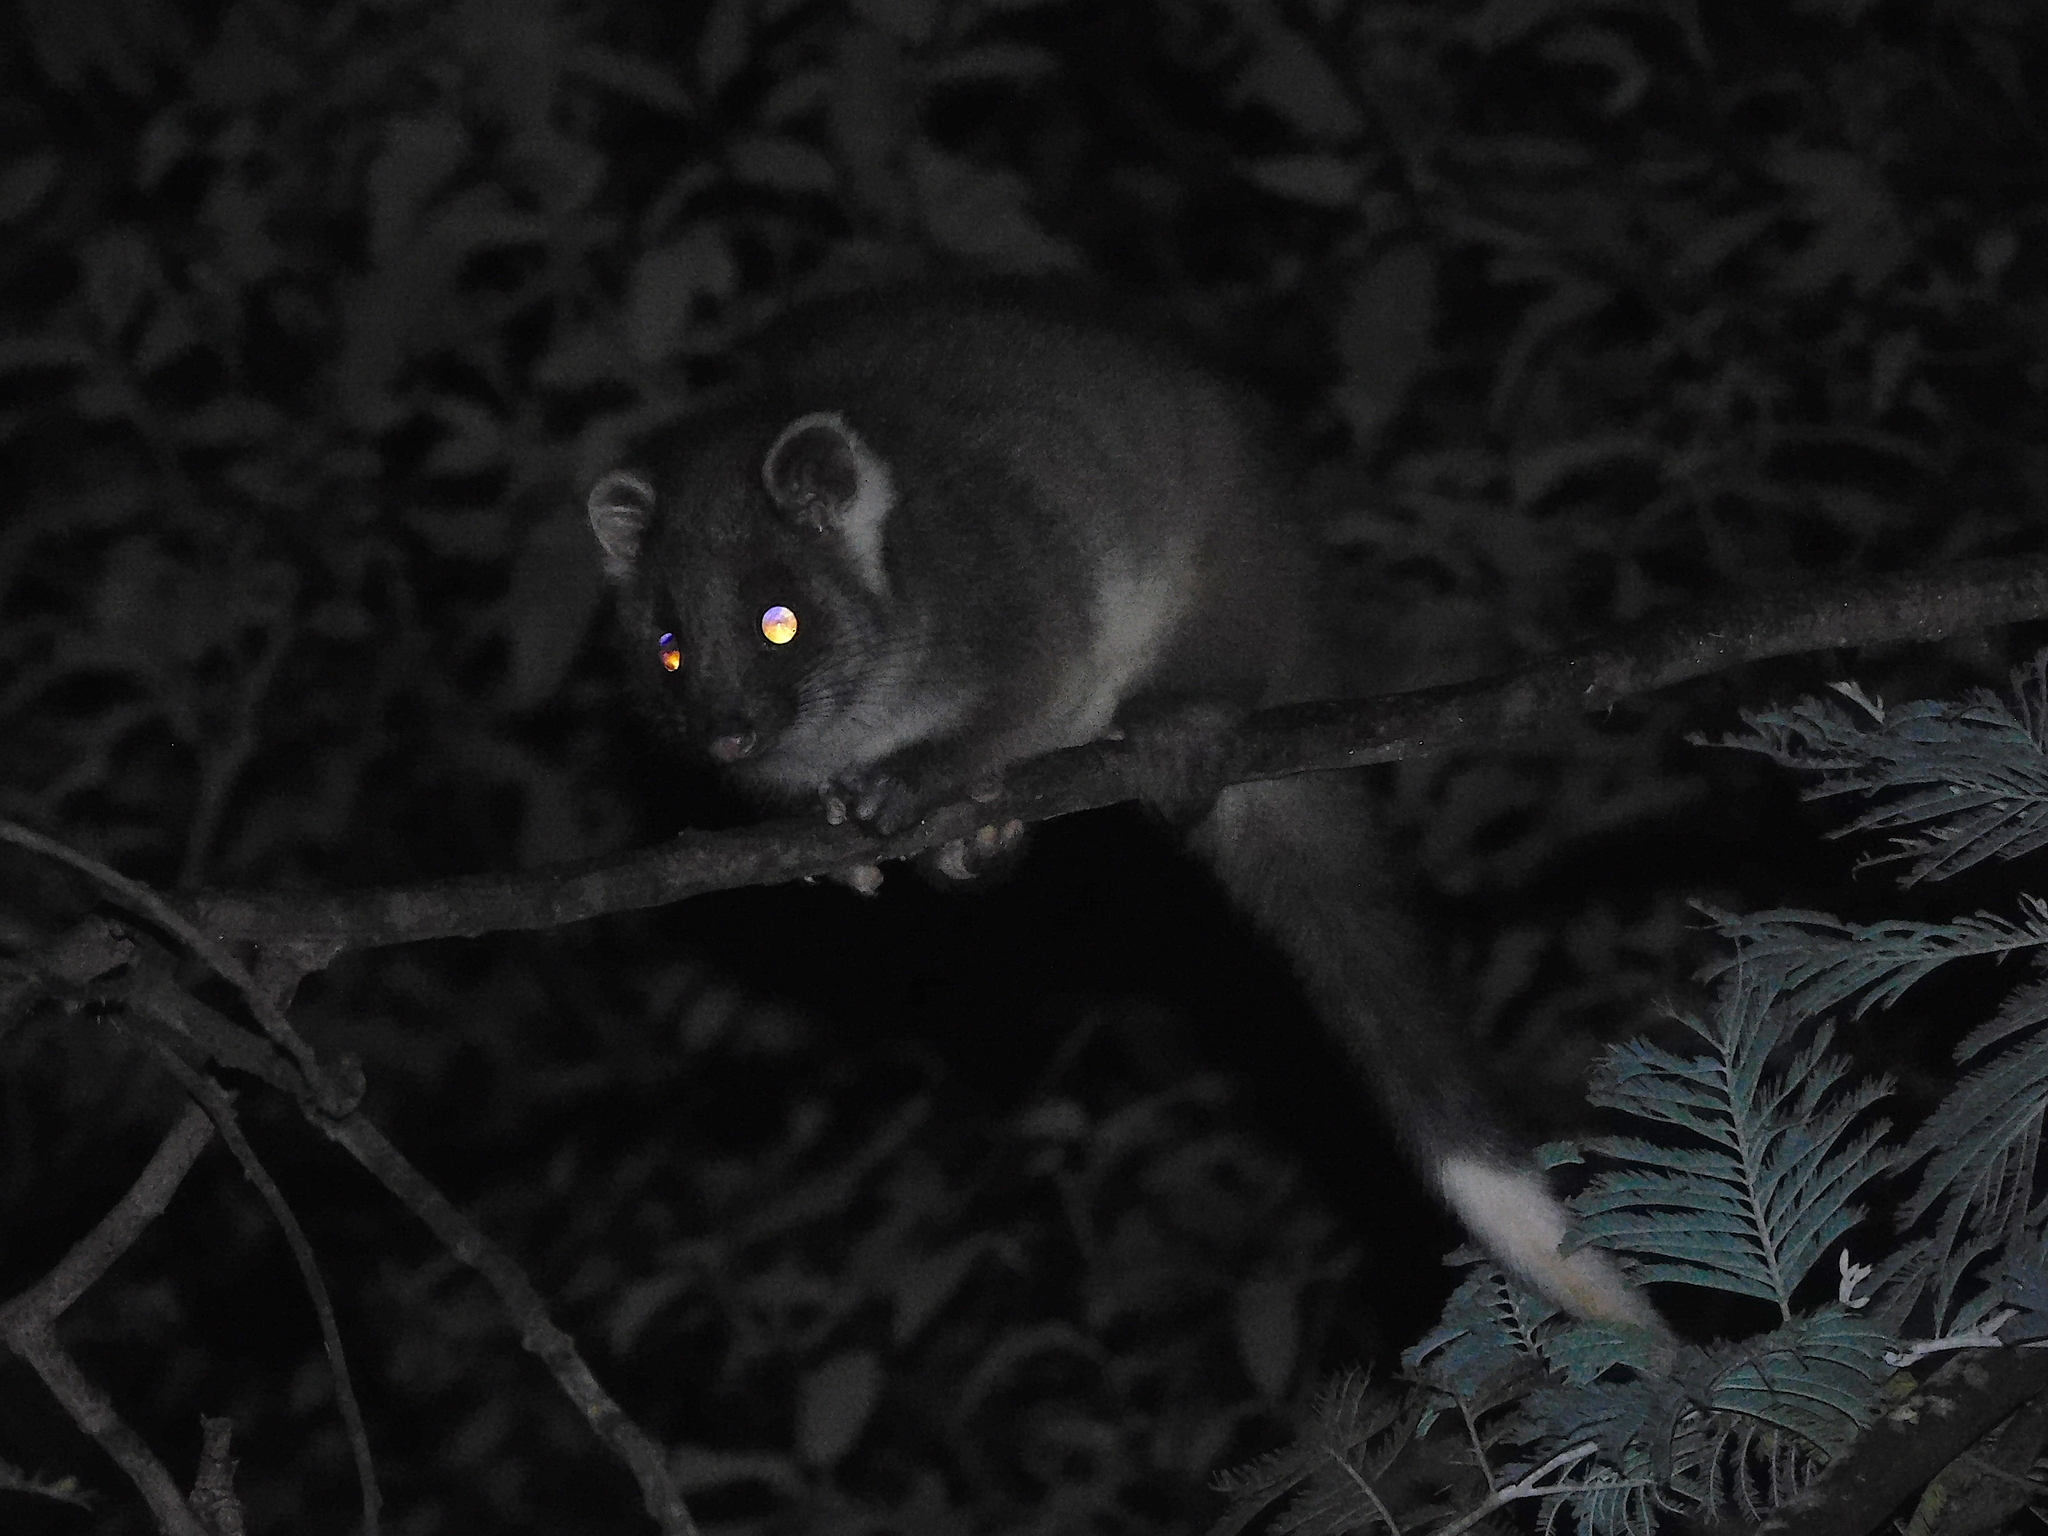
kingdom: Animalia
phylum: Chordata
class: Mammalia
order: Diprotodontia
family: Pseudocheiridae
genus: Pseudocheirus
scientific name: Pseudocheirus peregrinus
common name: Common ringtail possum
